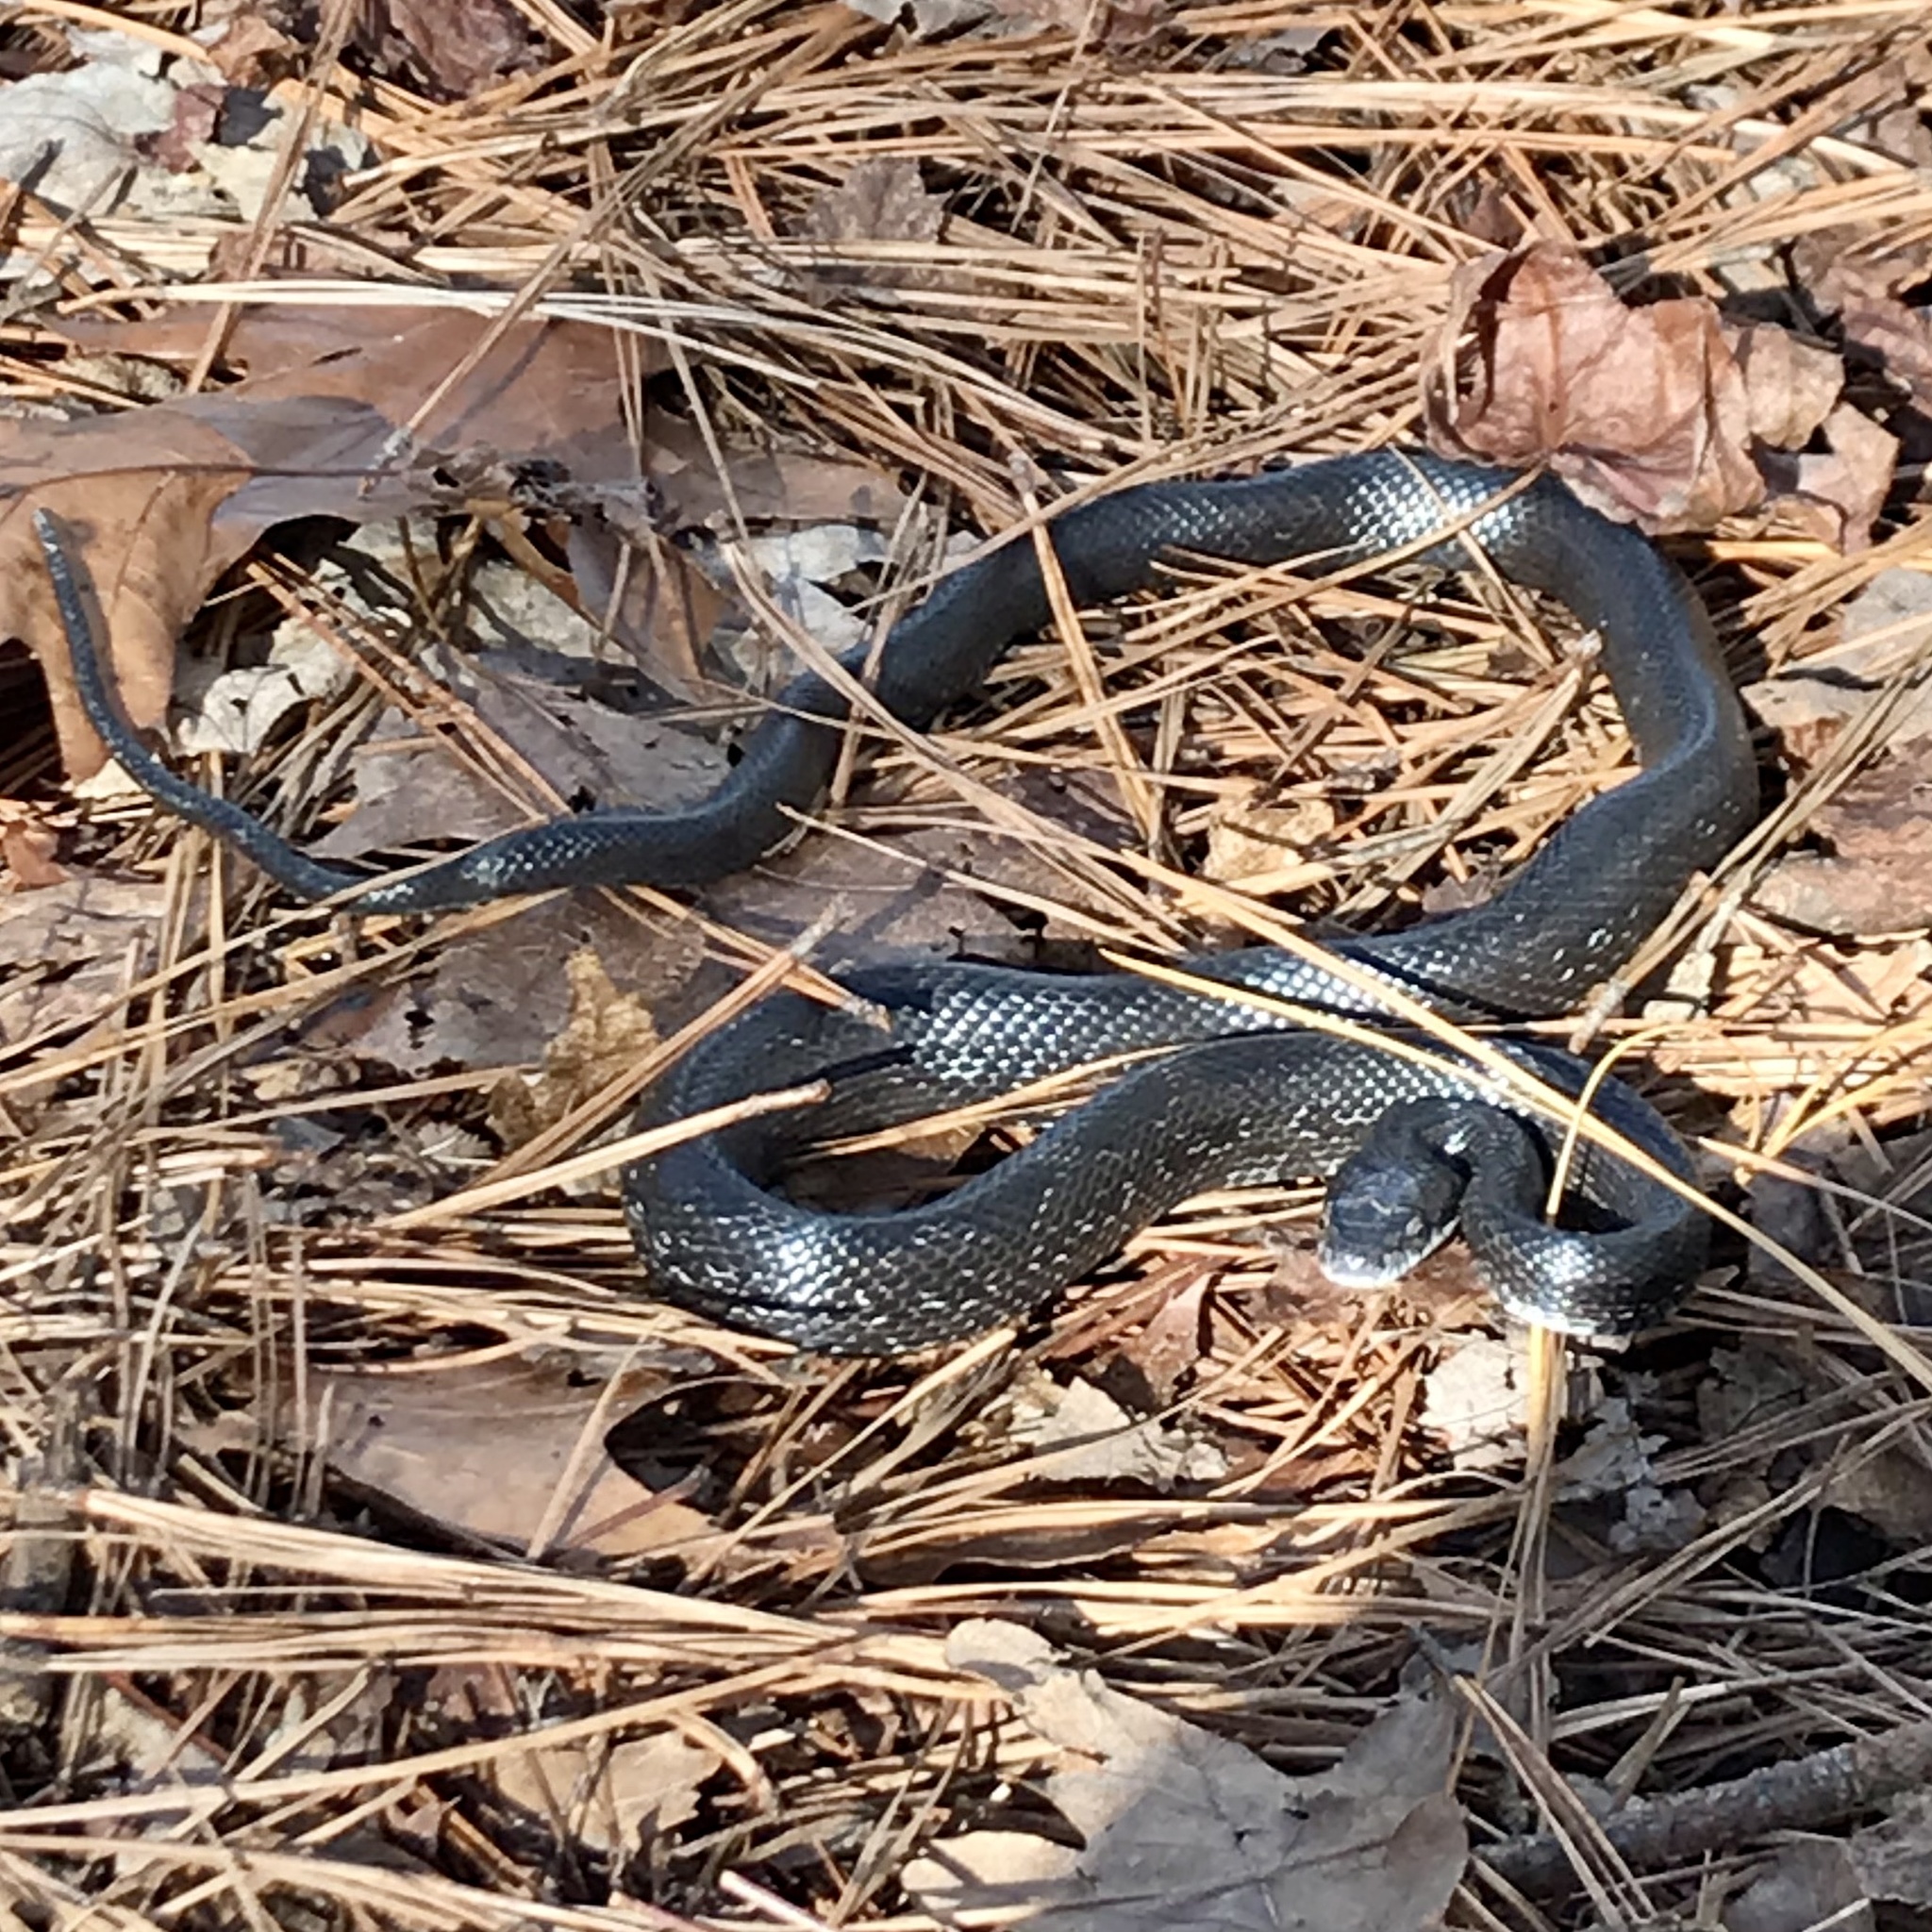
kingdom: Animalia
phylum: Chordata
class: Squamata
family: Colubridae
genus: Pantherophis
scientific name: Pantherophis alleghaniensis
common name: Eastern rat snake
